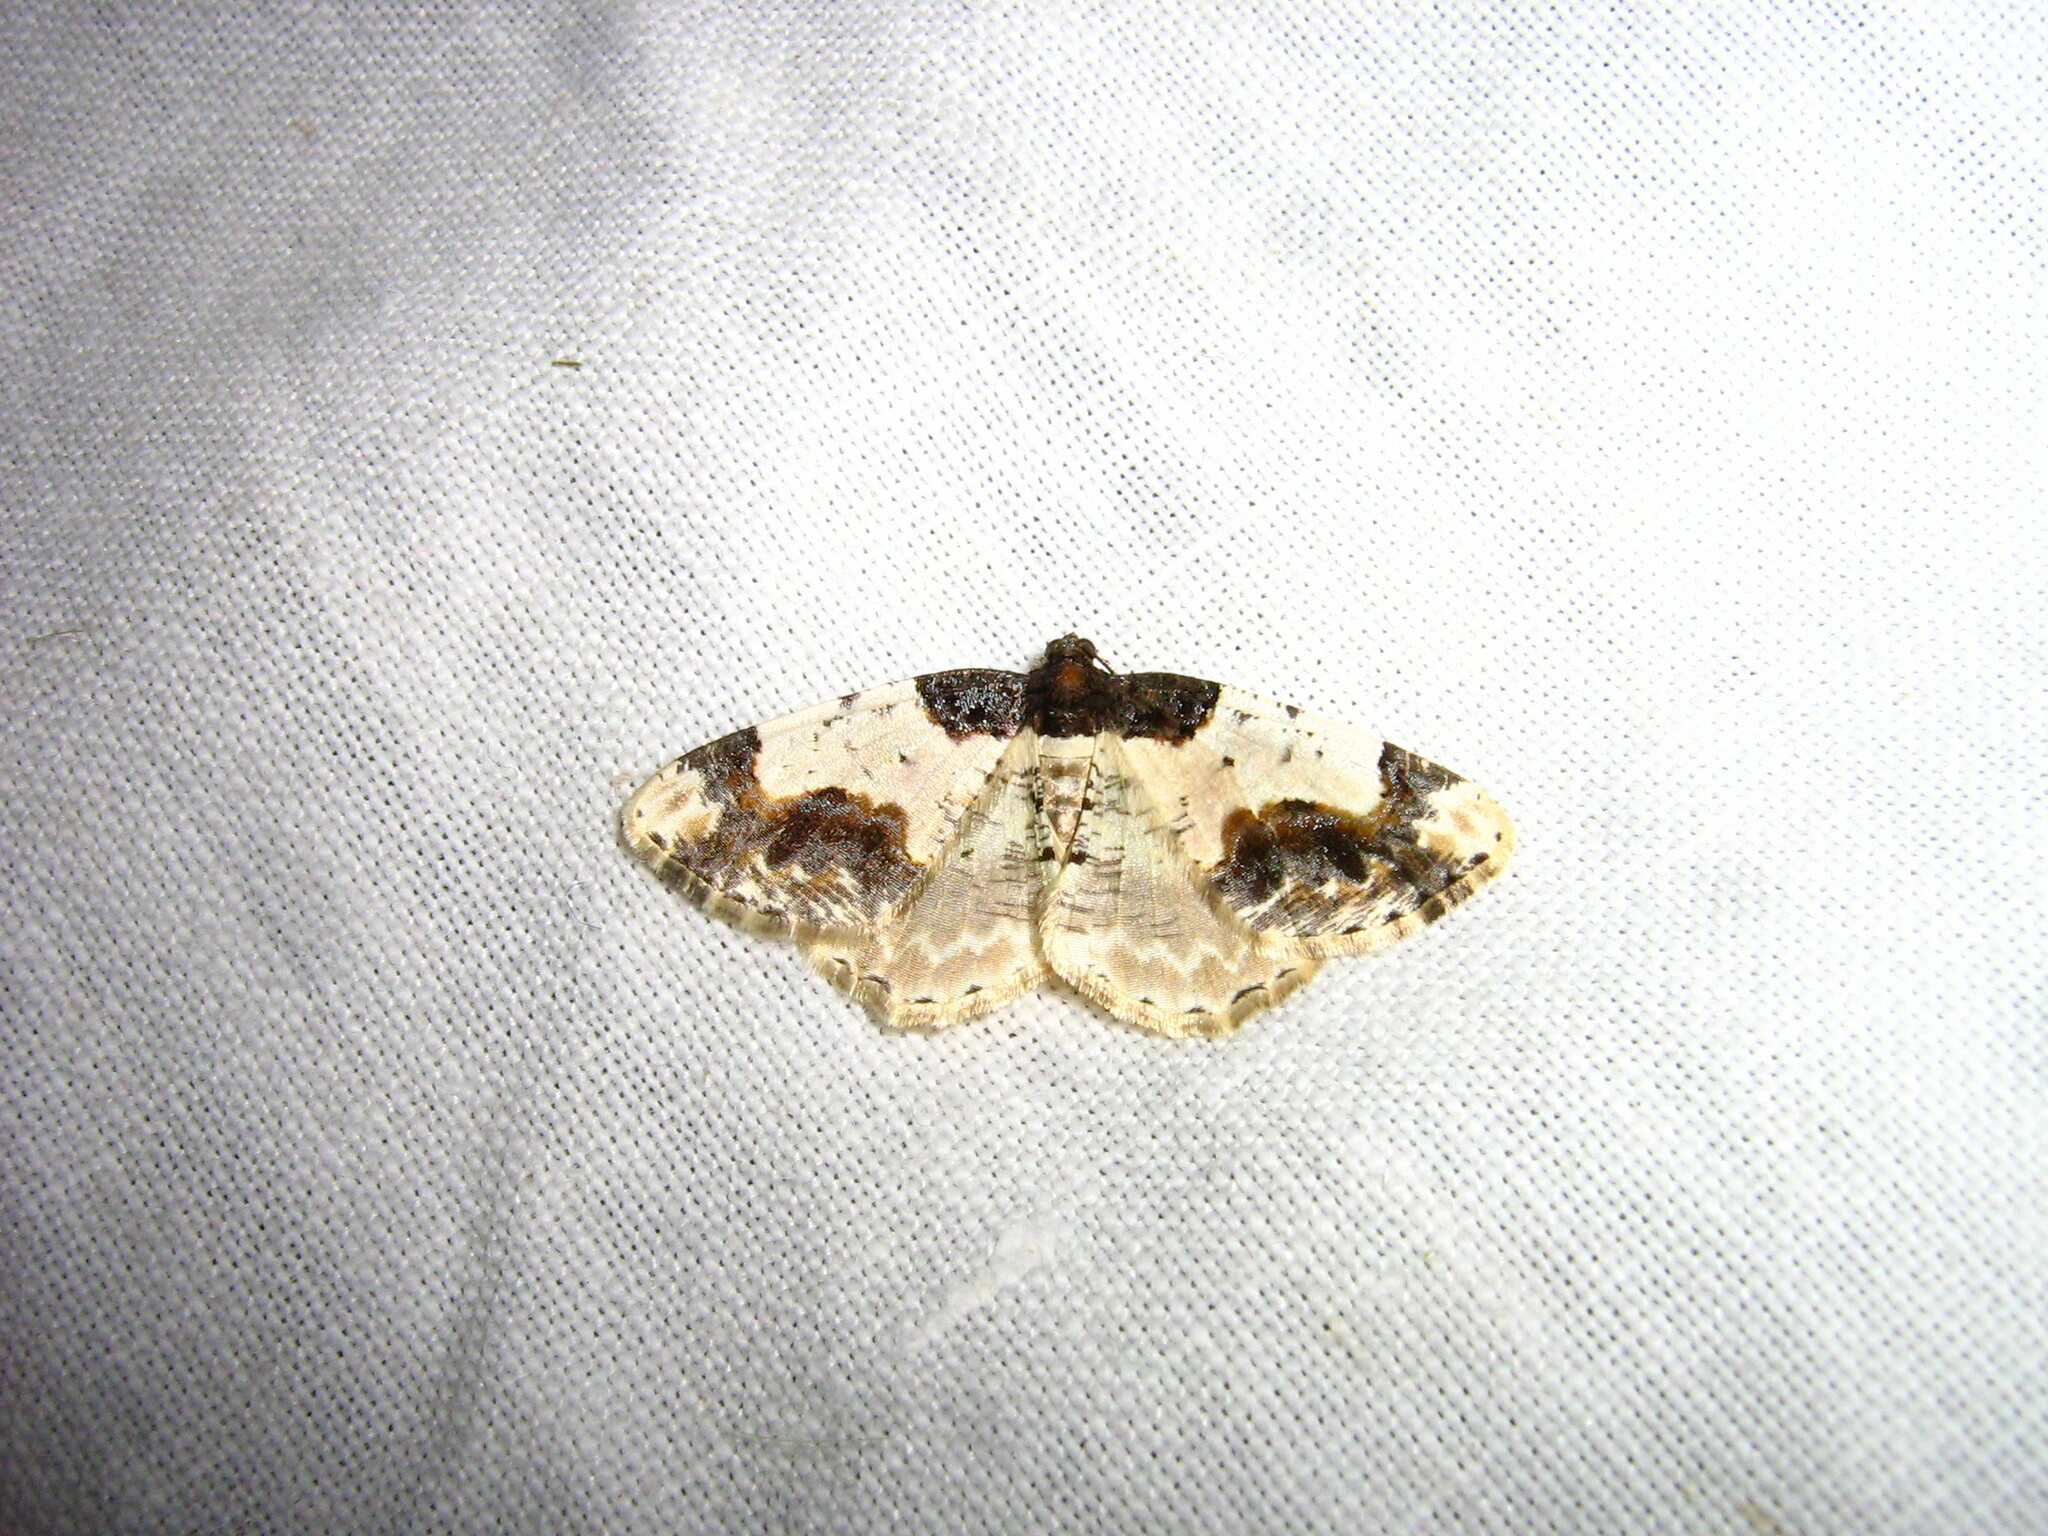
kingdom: Animalia
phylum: Arthropoda
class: Insecta
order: Lepidoptera
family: Geometridae
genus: Ligdia
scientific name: Ligdia adustata
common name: Scorched carpet
